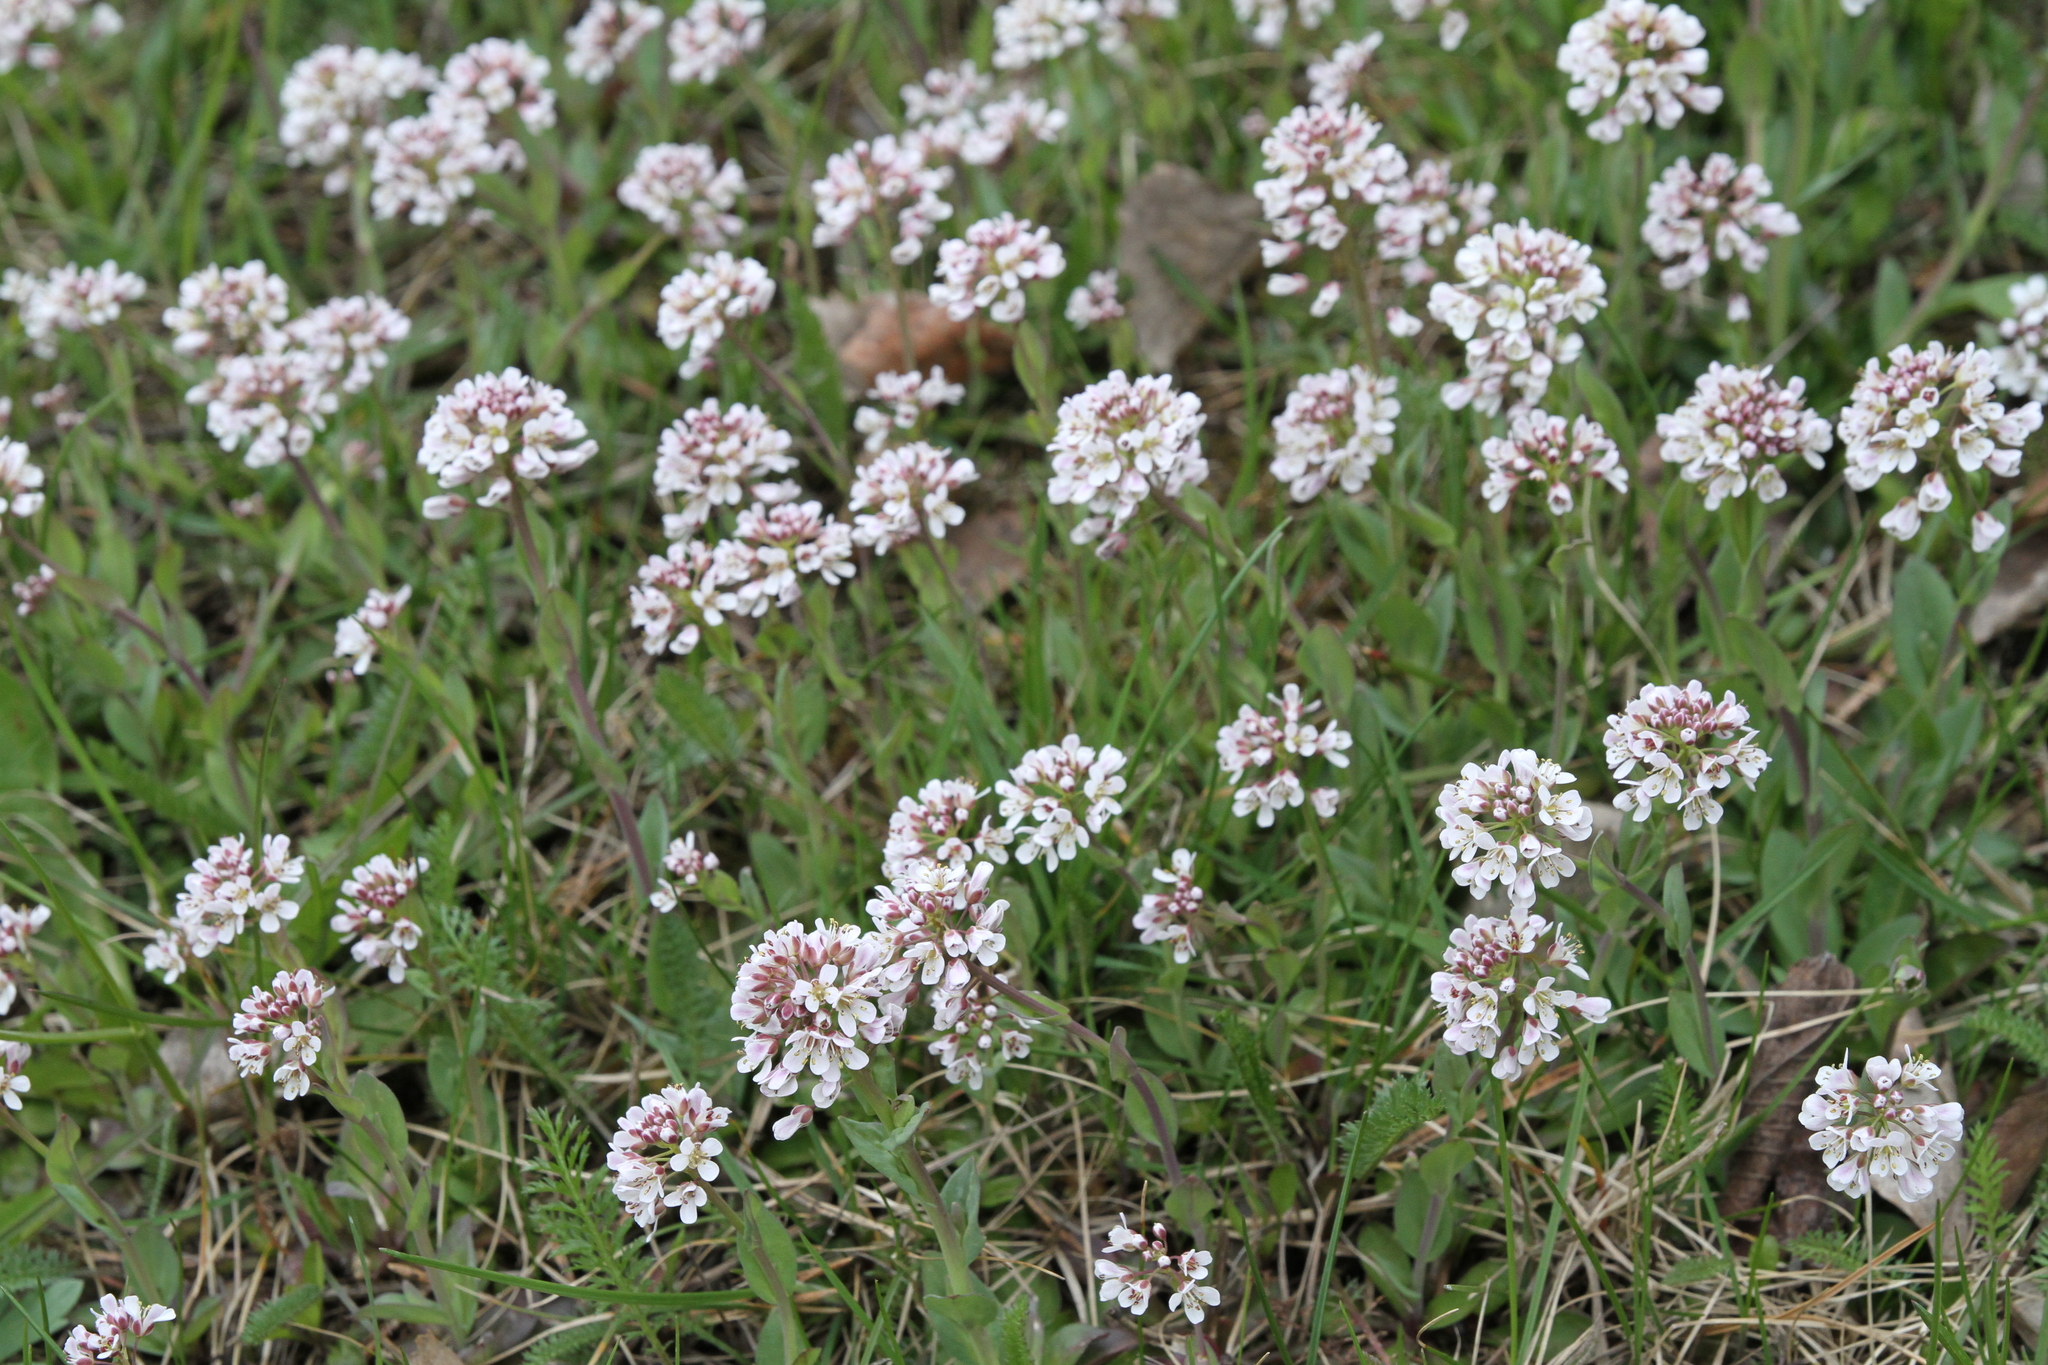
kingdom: Plantae
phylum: Tracheophyta
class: Magnoliopsida
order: Brassicales
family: Brassicaceae
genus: Noccaea
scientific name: Noccaea caerulescens
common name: Alpine pennycress
